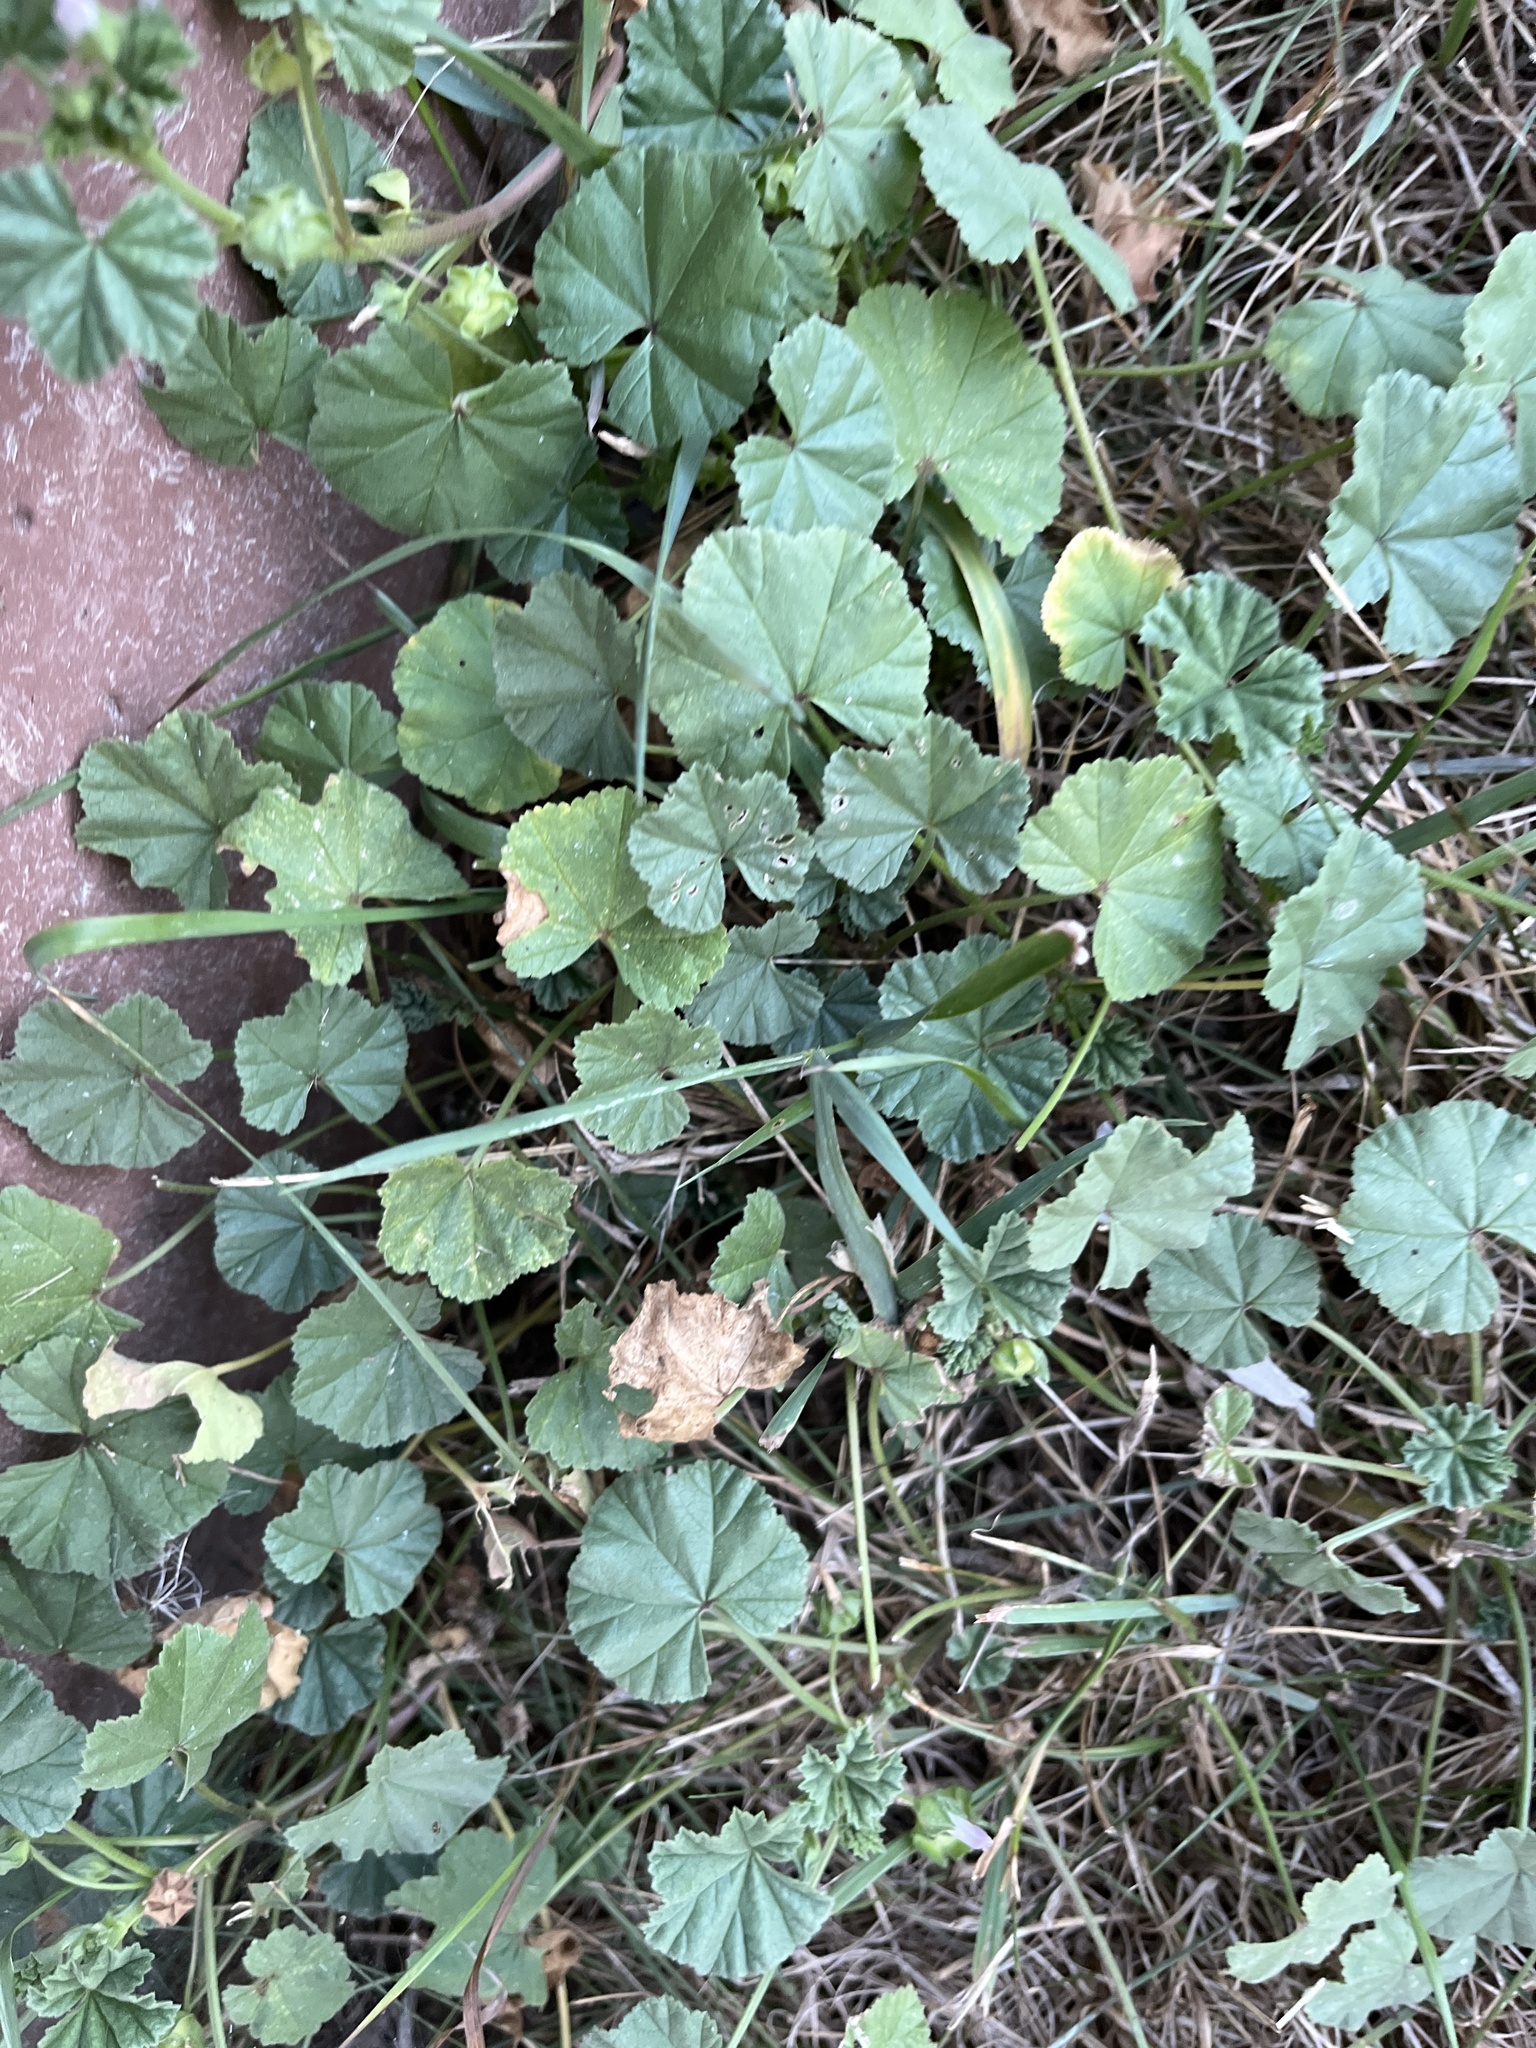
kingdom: Plantae
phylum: Tracheophyta
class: Magnoliopsida
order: Malvales
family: Malvaceae
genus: Malva
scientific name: Malva neglecta
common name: Common mallow
